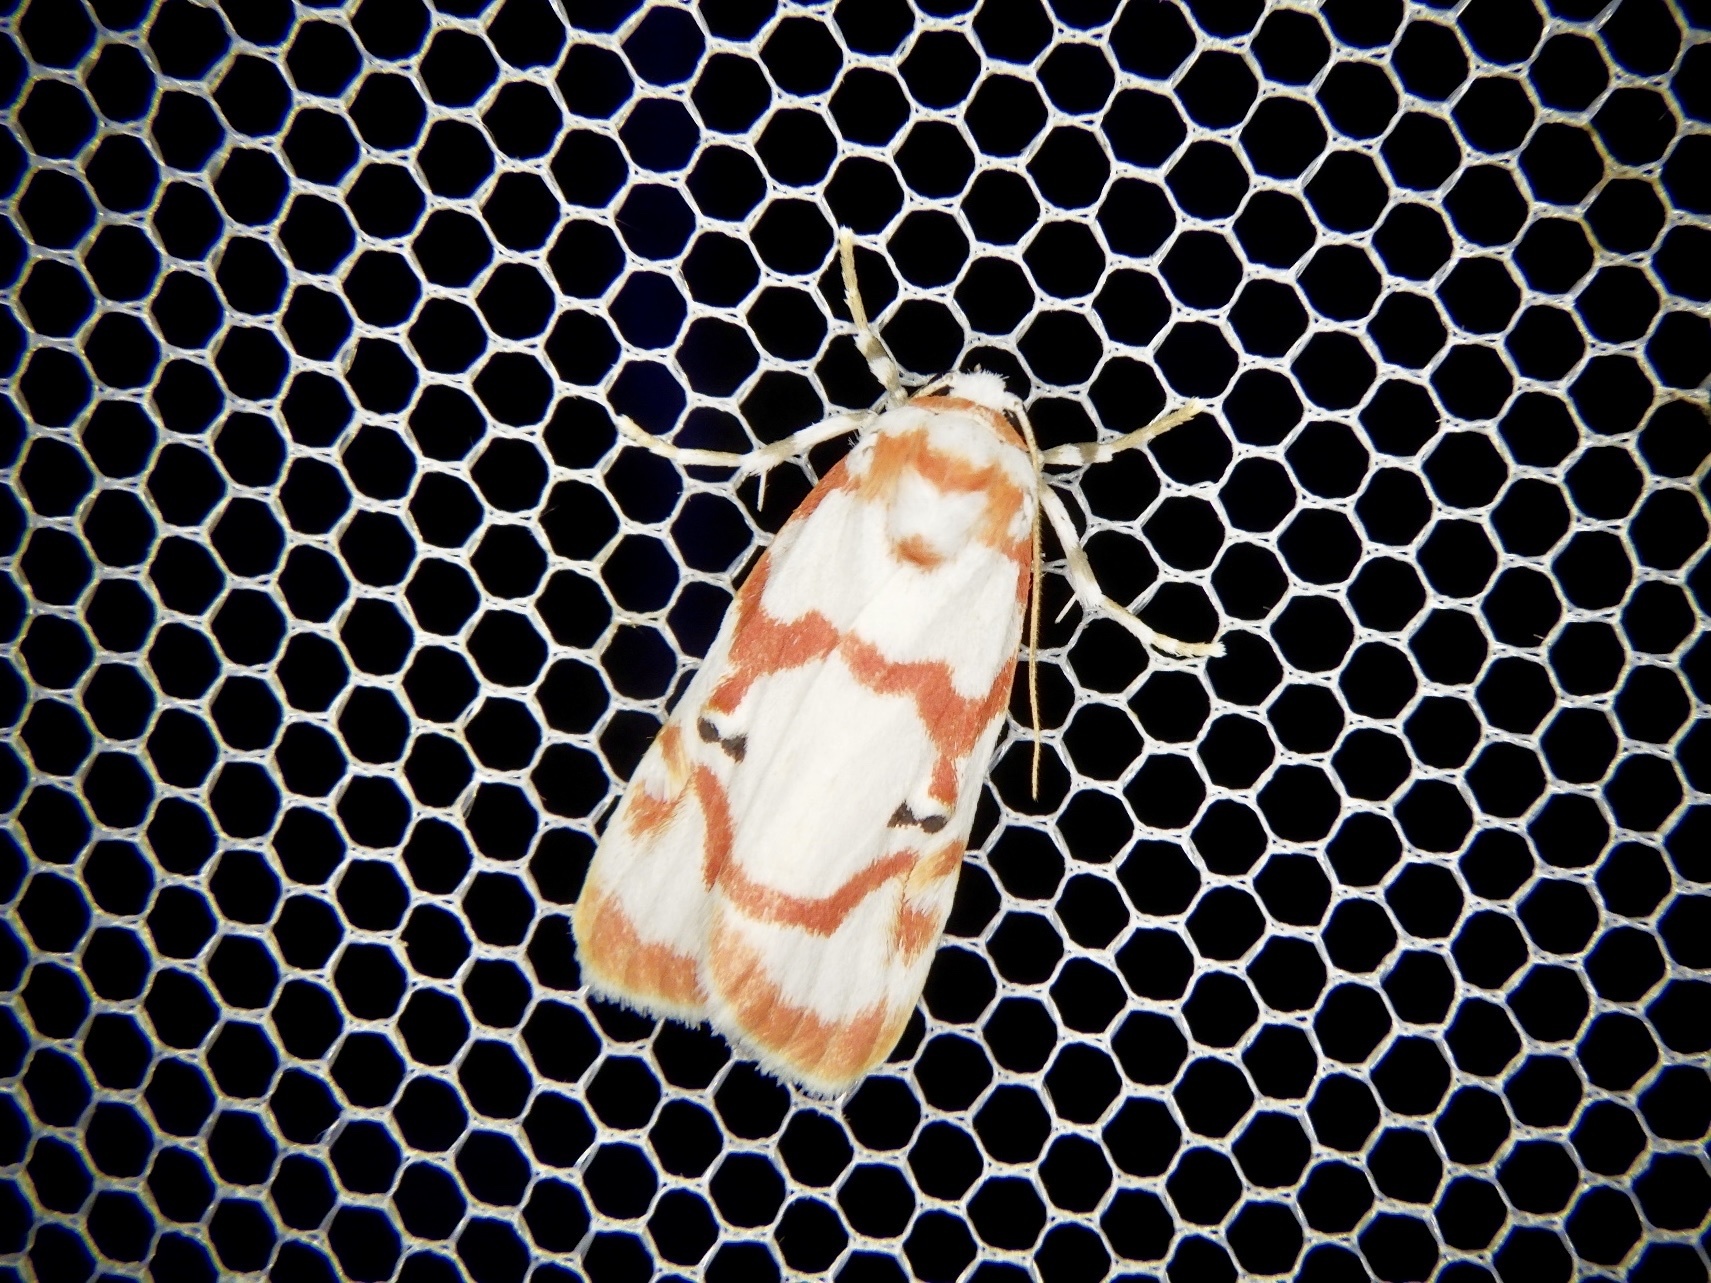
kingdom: Animalia
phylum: Arthropoda
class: Insecta
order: Lepidoptera
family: Erebidae
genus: Cyana
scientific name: Cyana hamata
